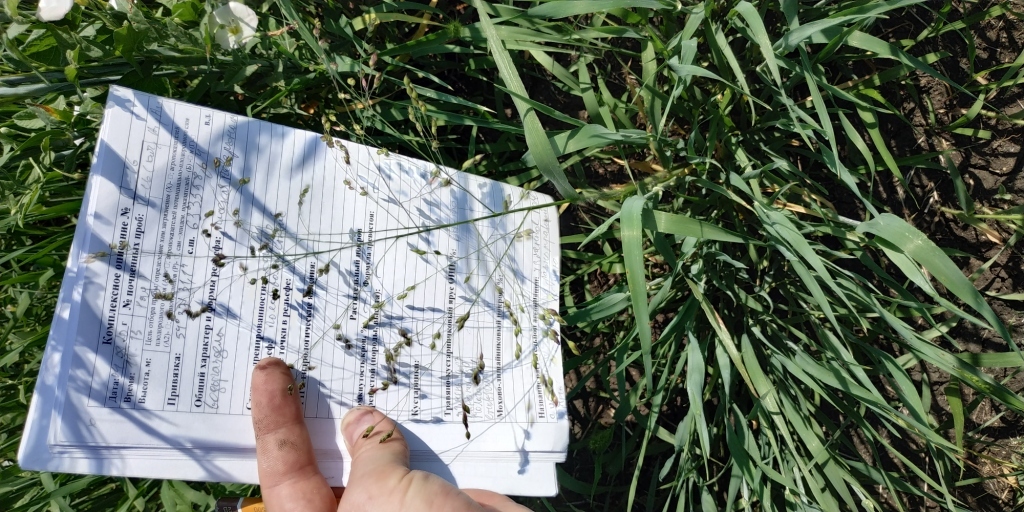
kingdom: Plantae
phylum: Tracheophyta
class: Liliopsida
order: Poales
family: Poaceae
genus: Panicum
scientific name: Panicum miliaceum
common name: Common millet
